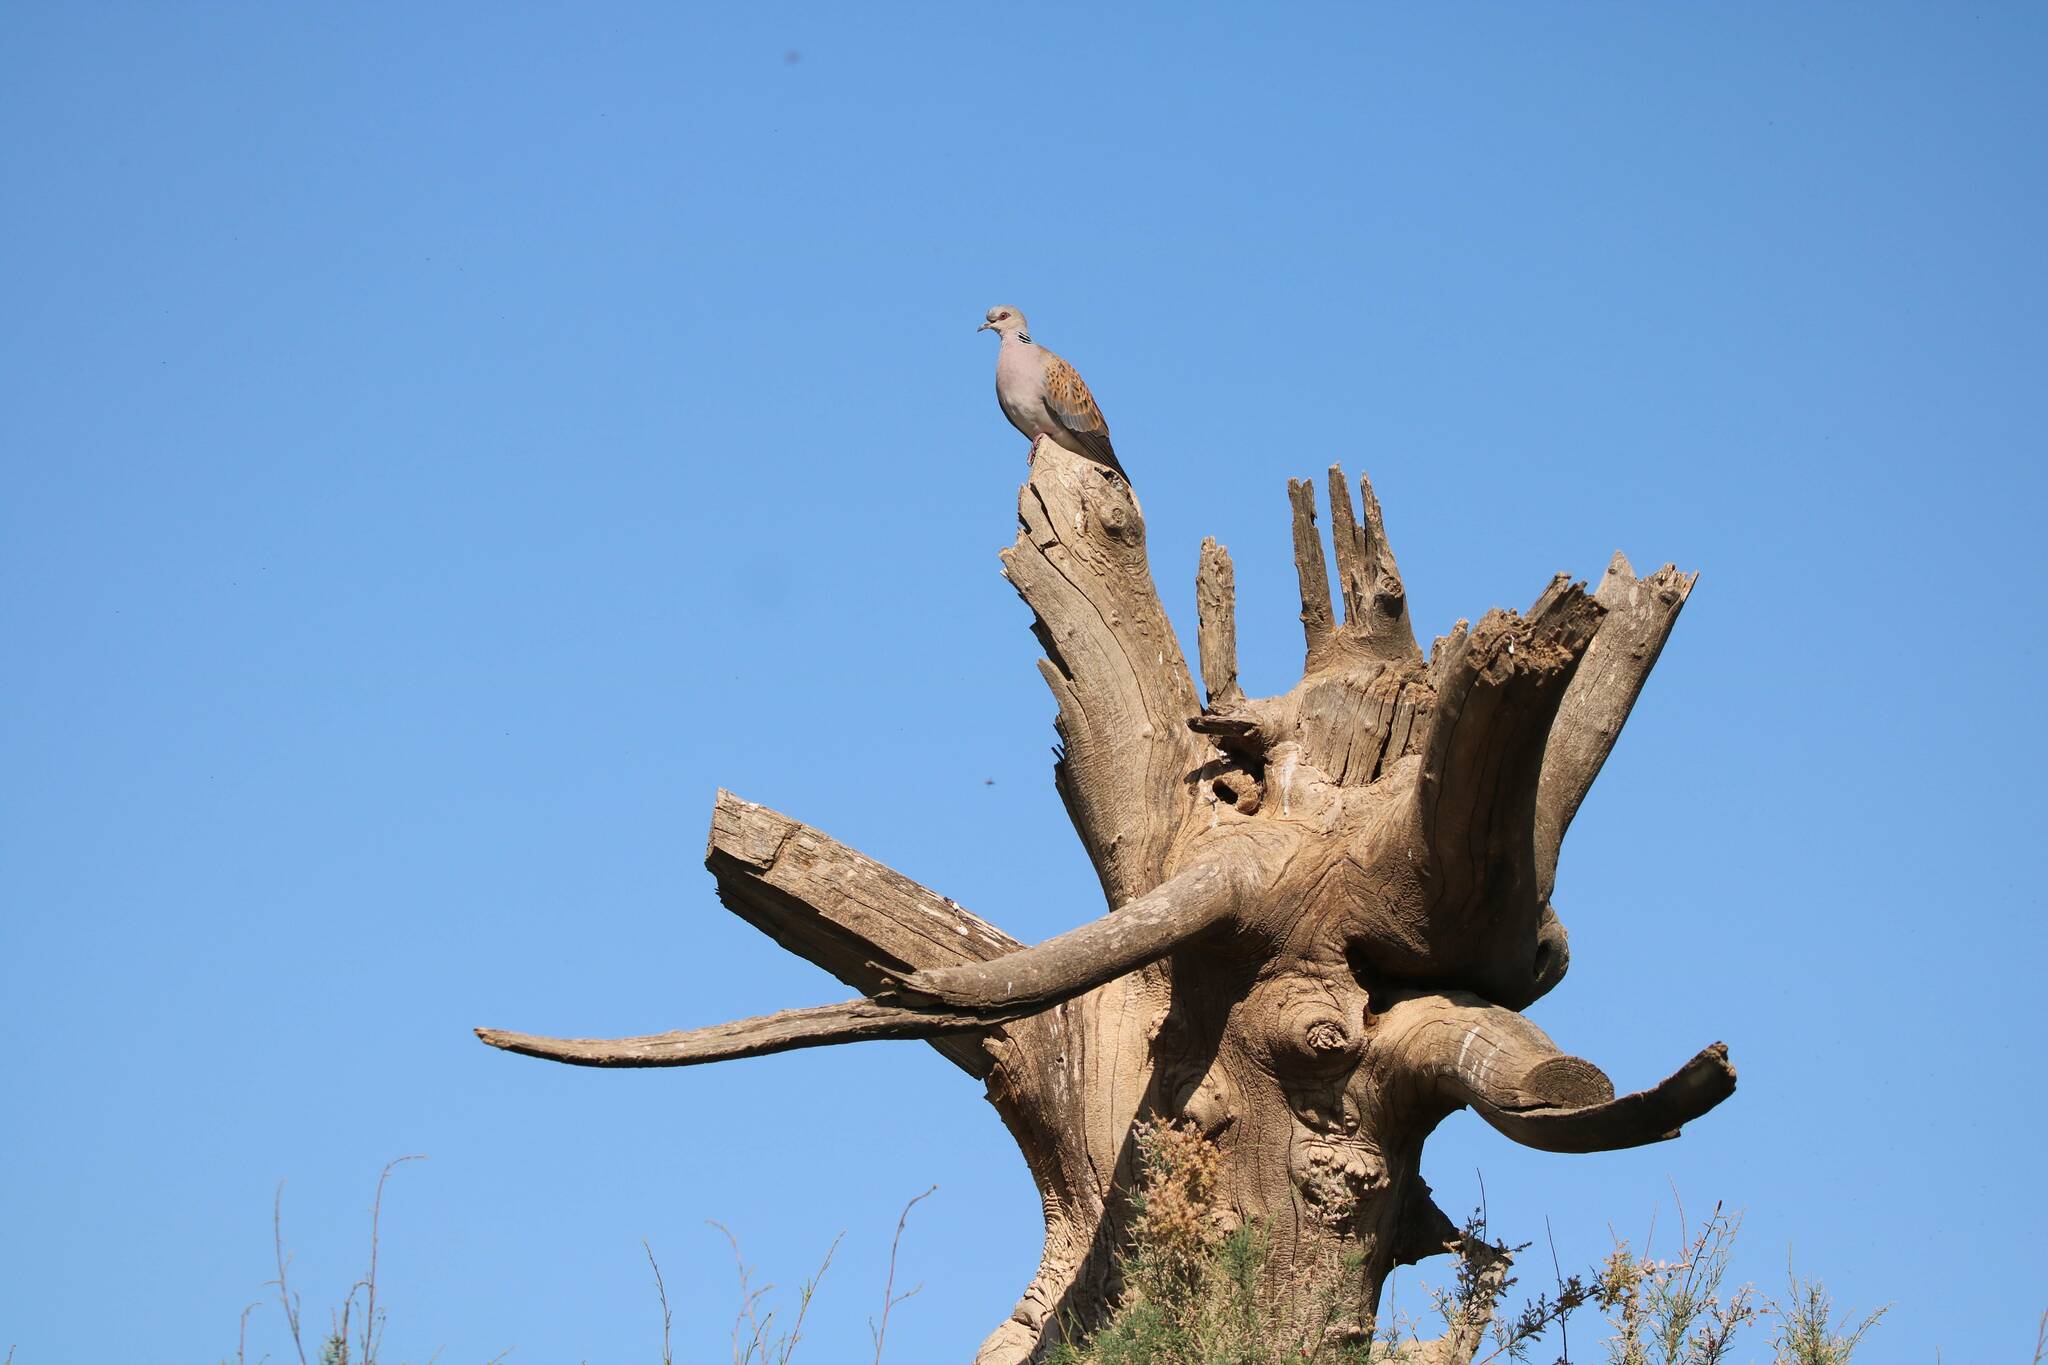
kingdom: Animalia
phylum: Chordata
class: Aves
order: Columbiformes
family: Columbidae
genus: Streptopelia
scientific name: Streptopelia turtur
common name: European turtle dove
